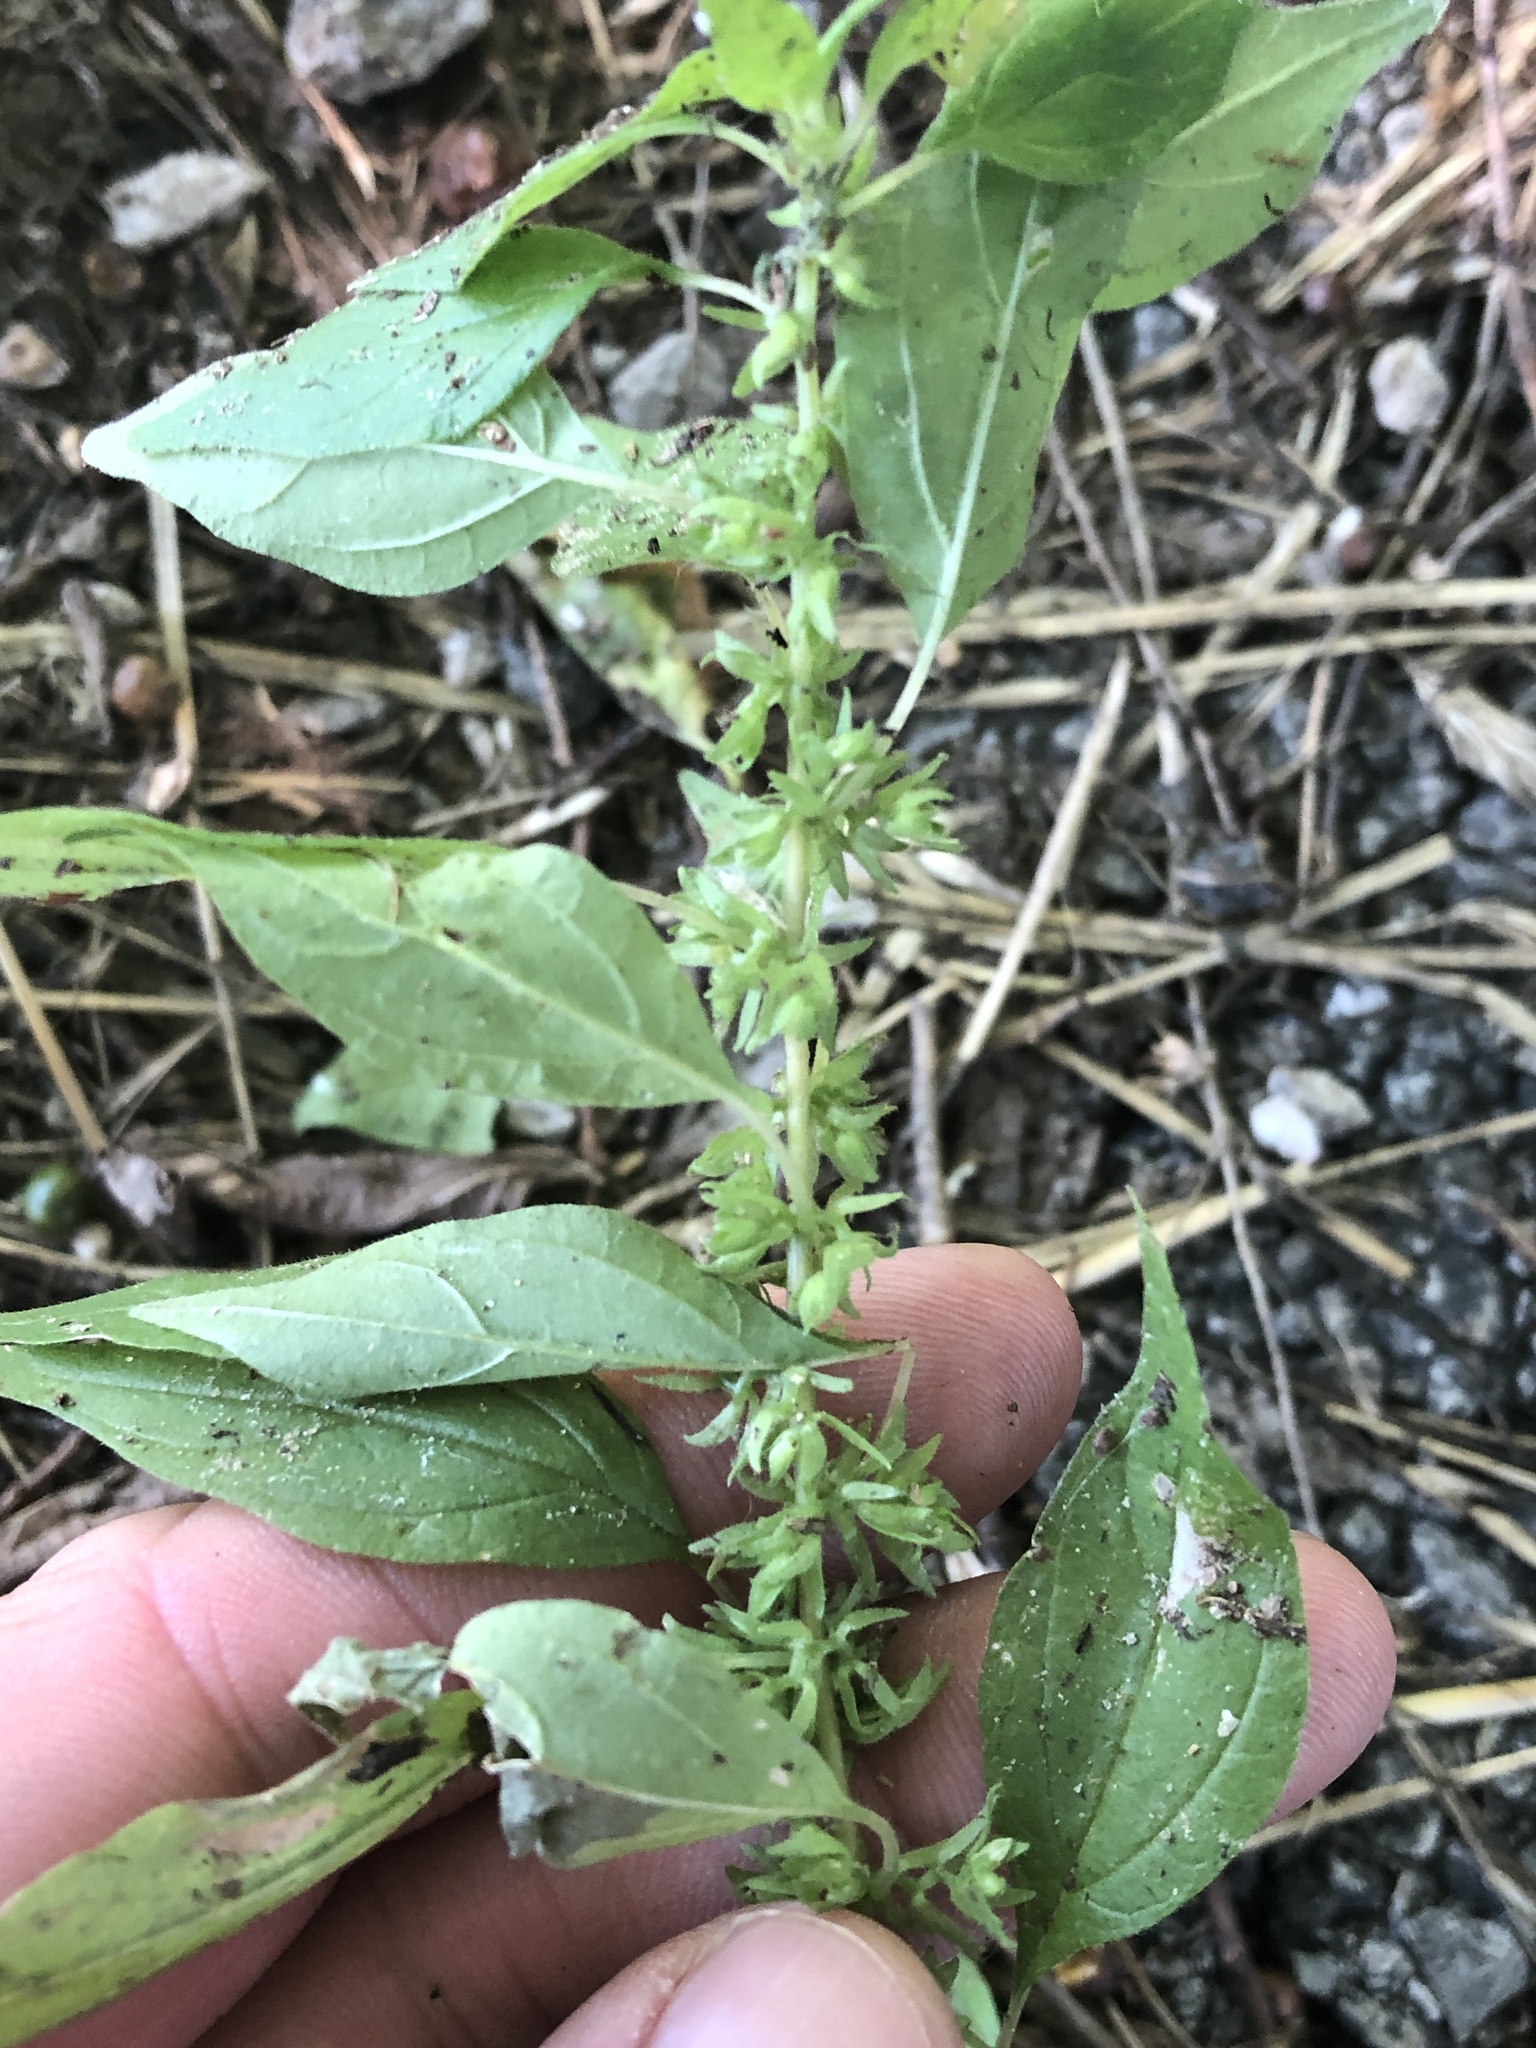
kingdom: Plantae
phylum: Tracheophyta
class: Magnoliopsida
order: Rosales
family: Urticaceae
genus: Parietaria
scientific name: Parietaria pensylvanica
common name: Pennsylvania pellitory
